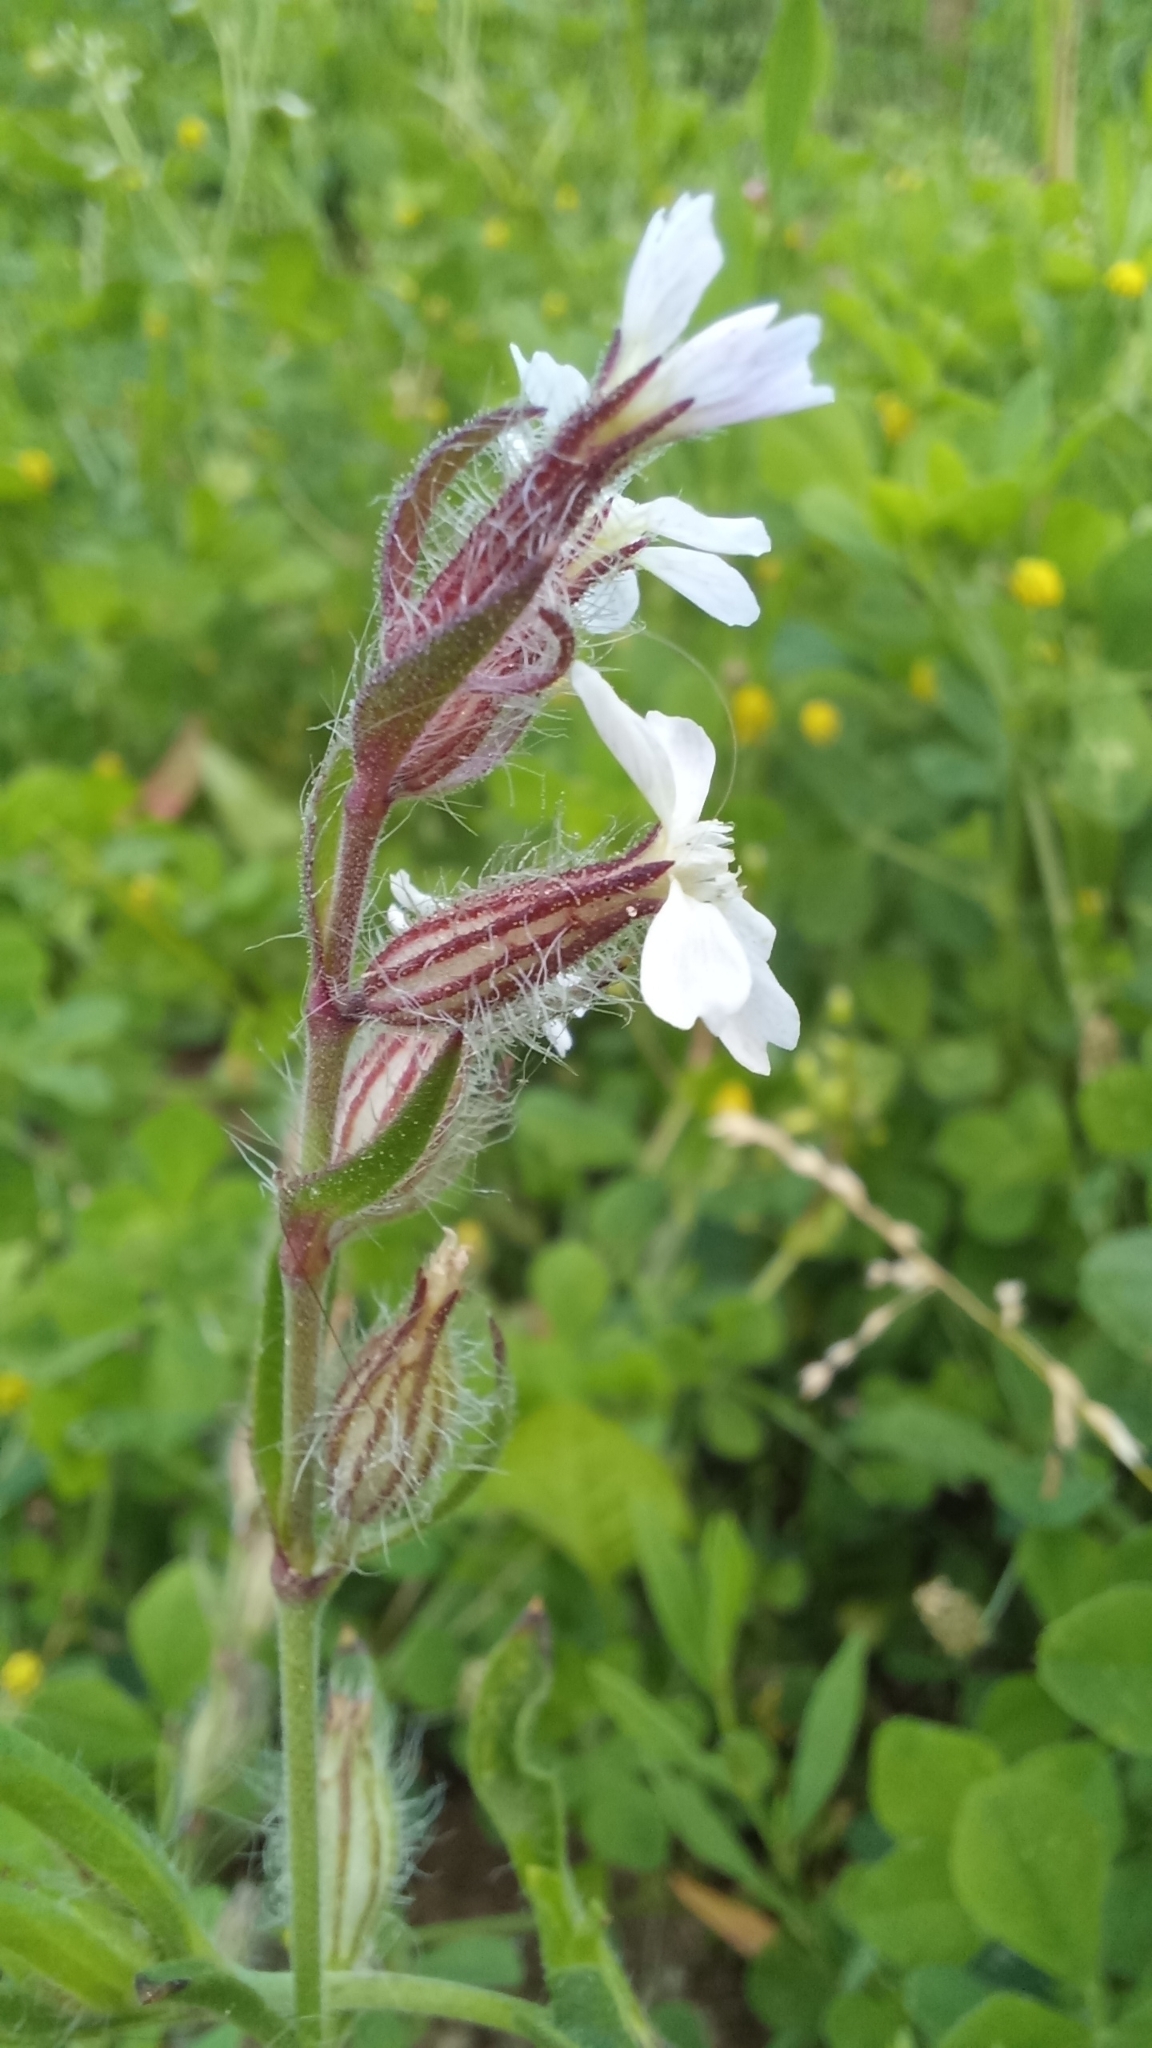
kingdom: Plantae
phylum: Tracheophyta
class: Magnoliopsida
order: Caryophyllales
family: Caryophyllaceae
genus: Silene
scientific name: Silene gallica
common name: Small-flowered catchfly
